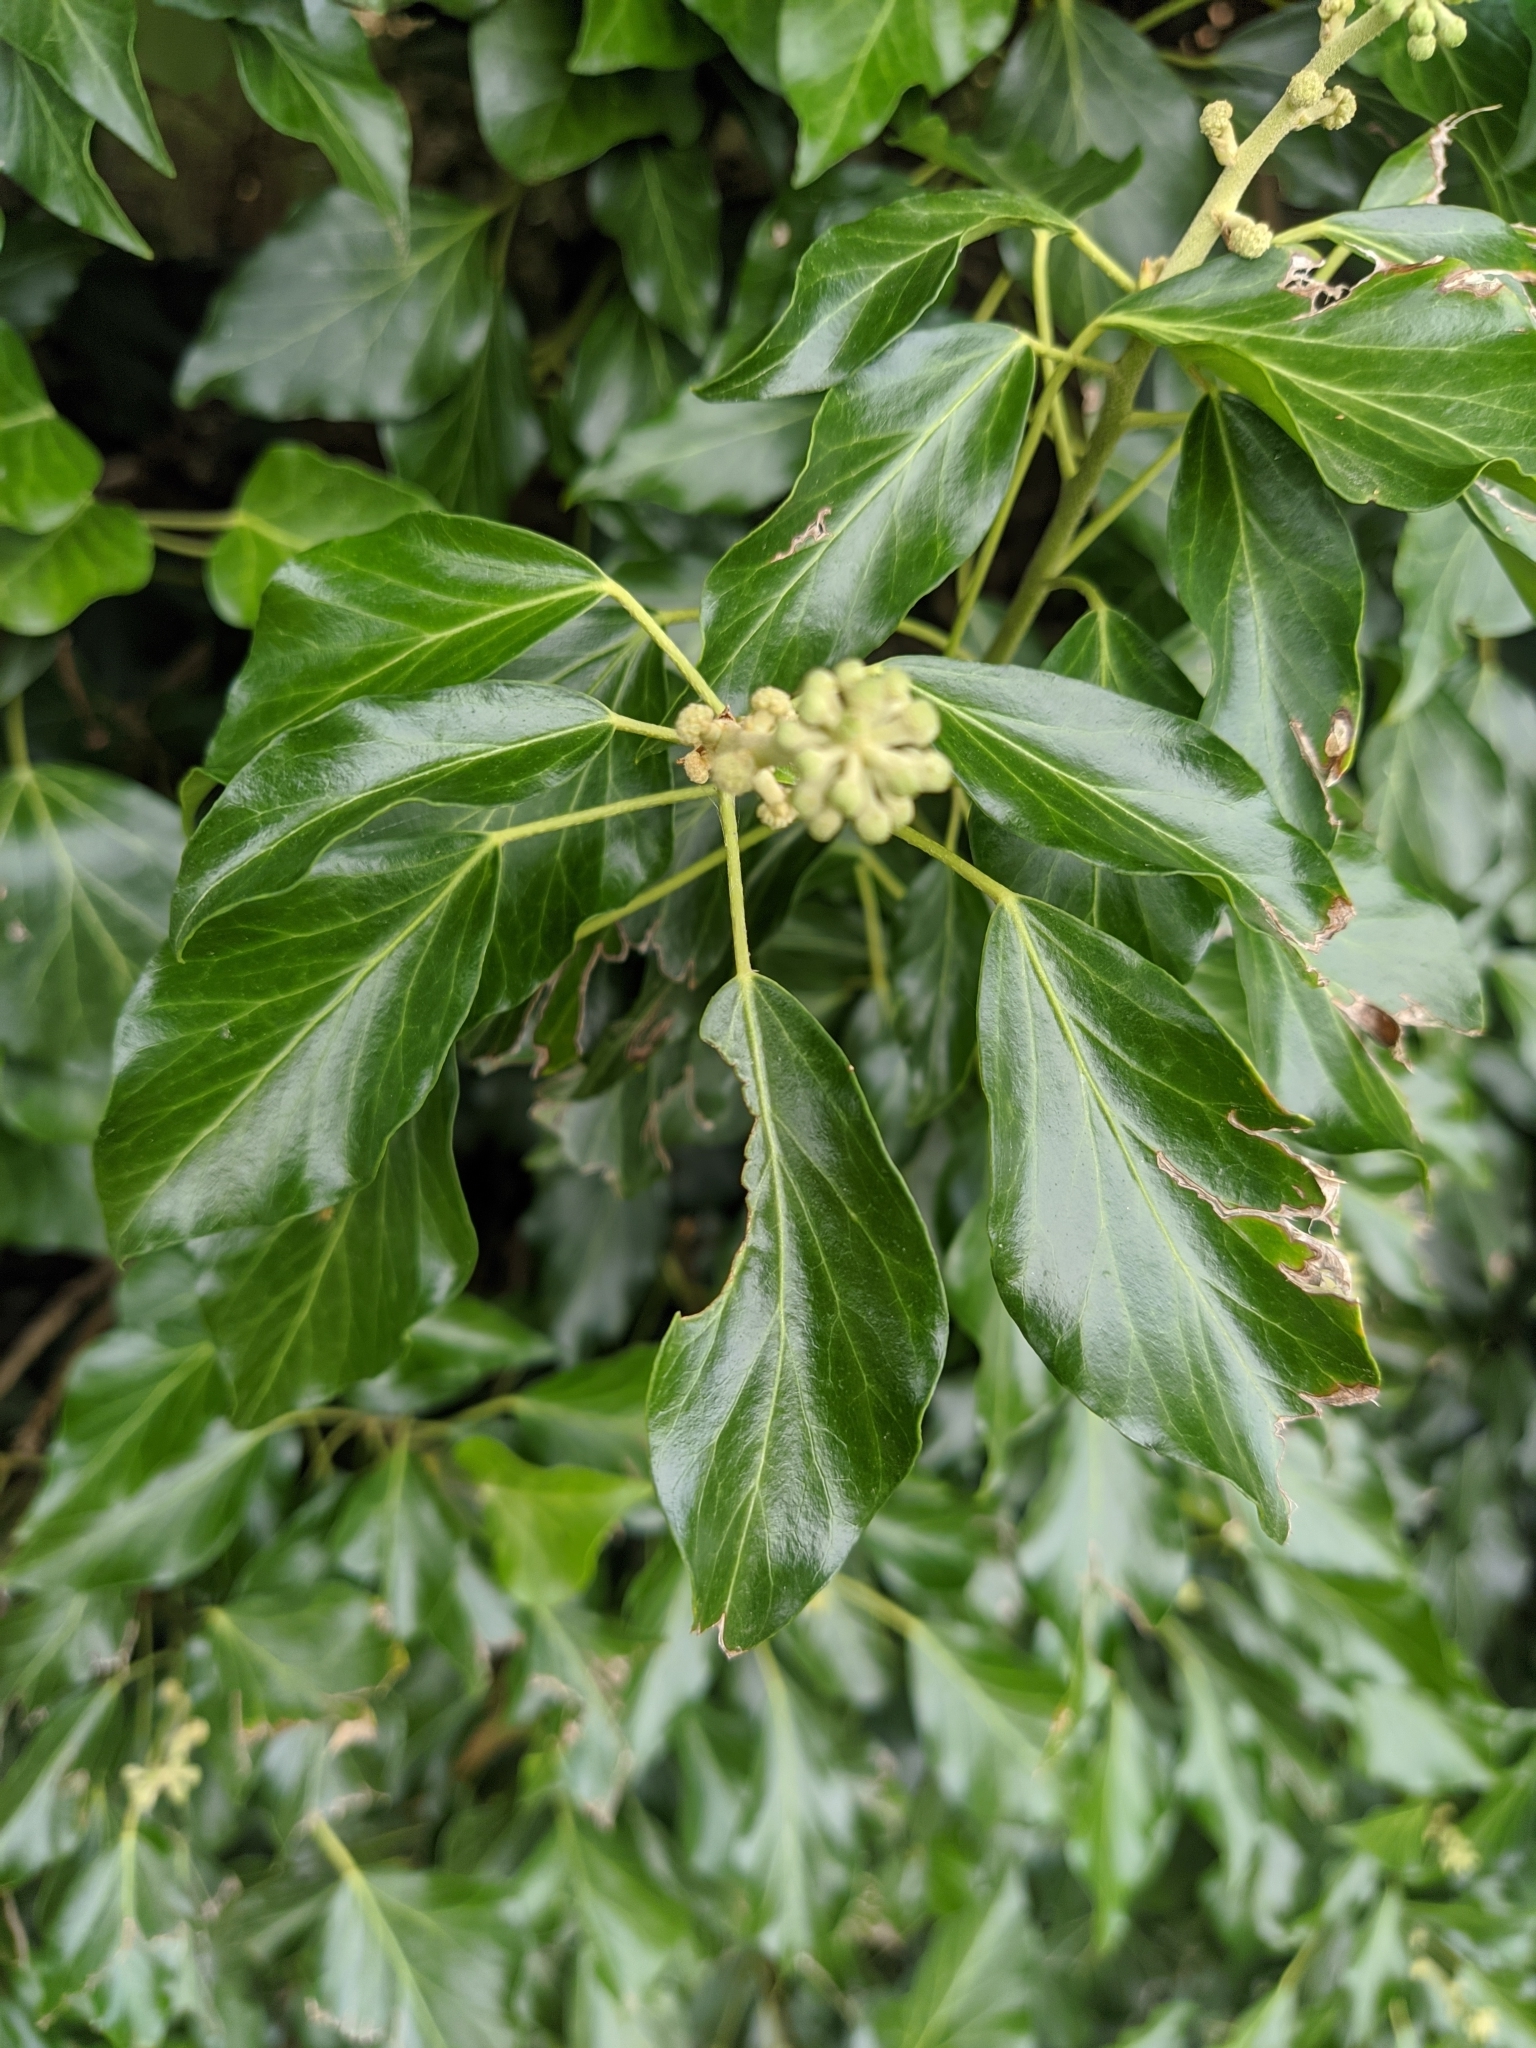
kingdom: Plantae
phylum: Tracheophyta
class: Magnoliopsida
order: Apiales
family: Araliaceae
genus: Hedera
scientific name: Hedera helix
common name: Ivy
